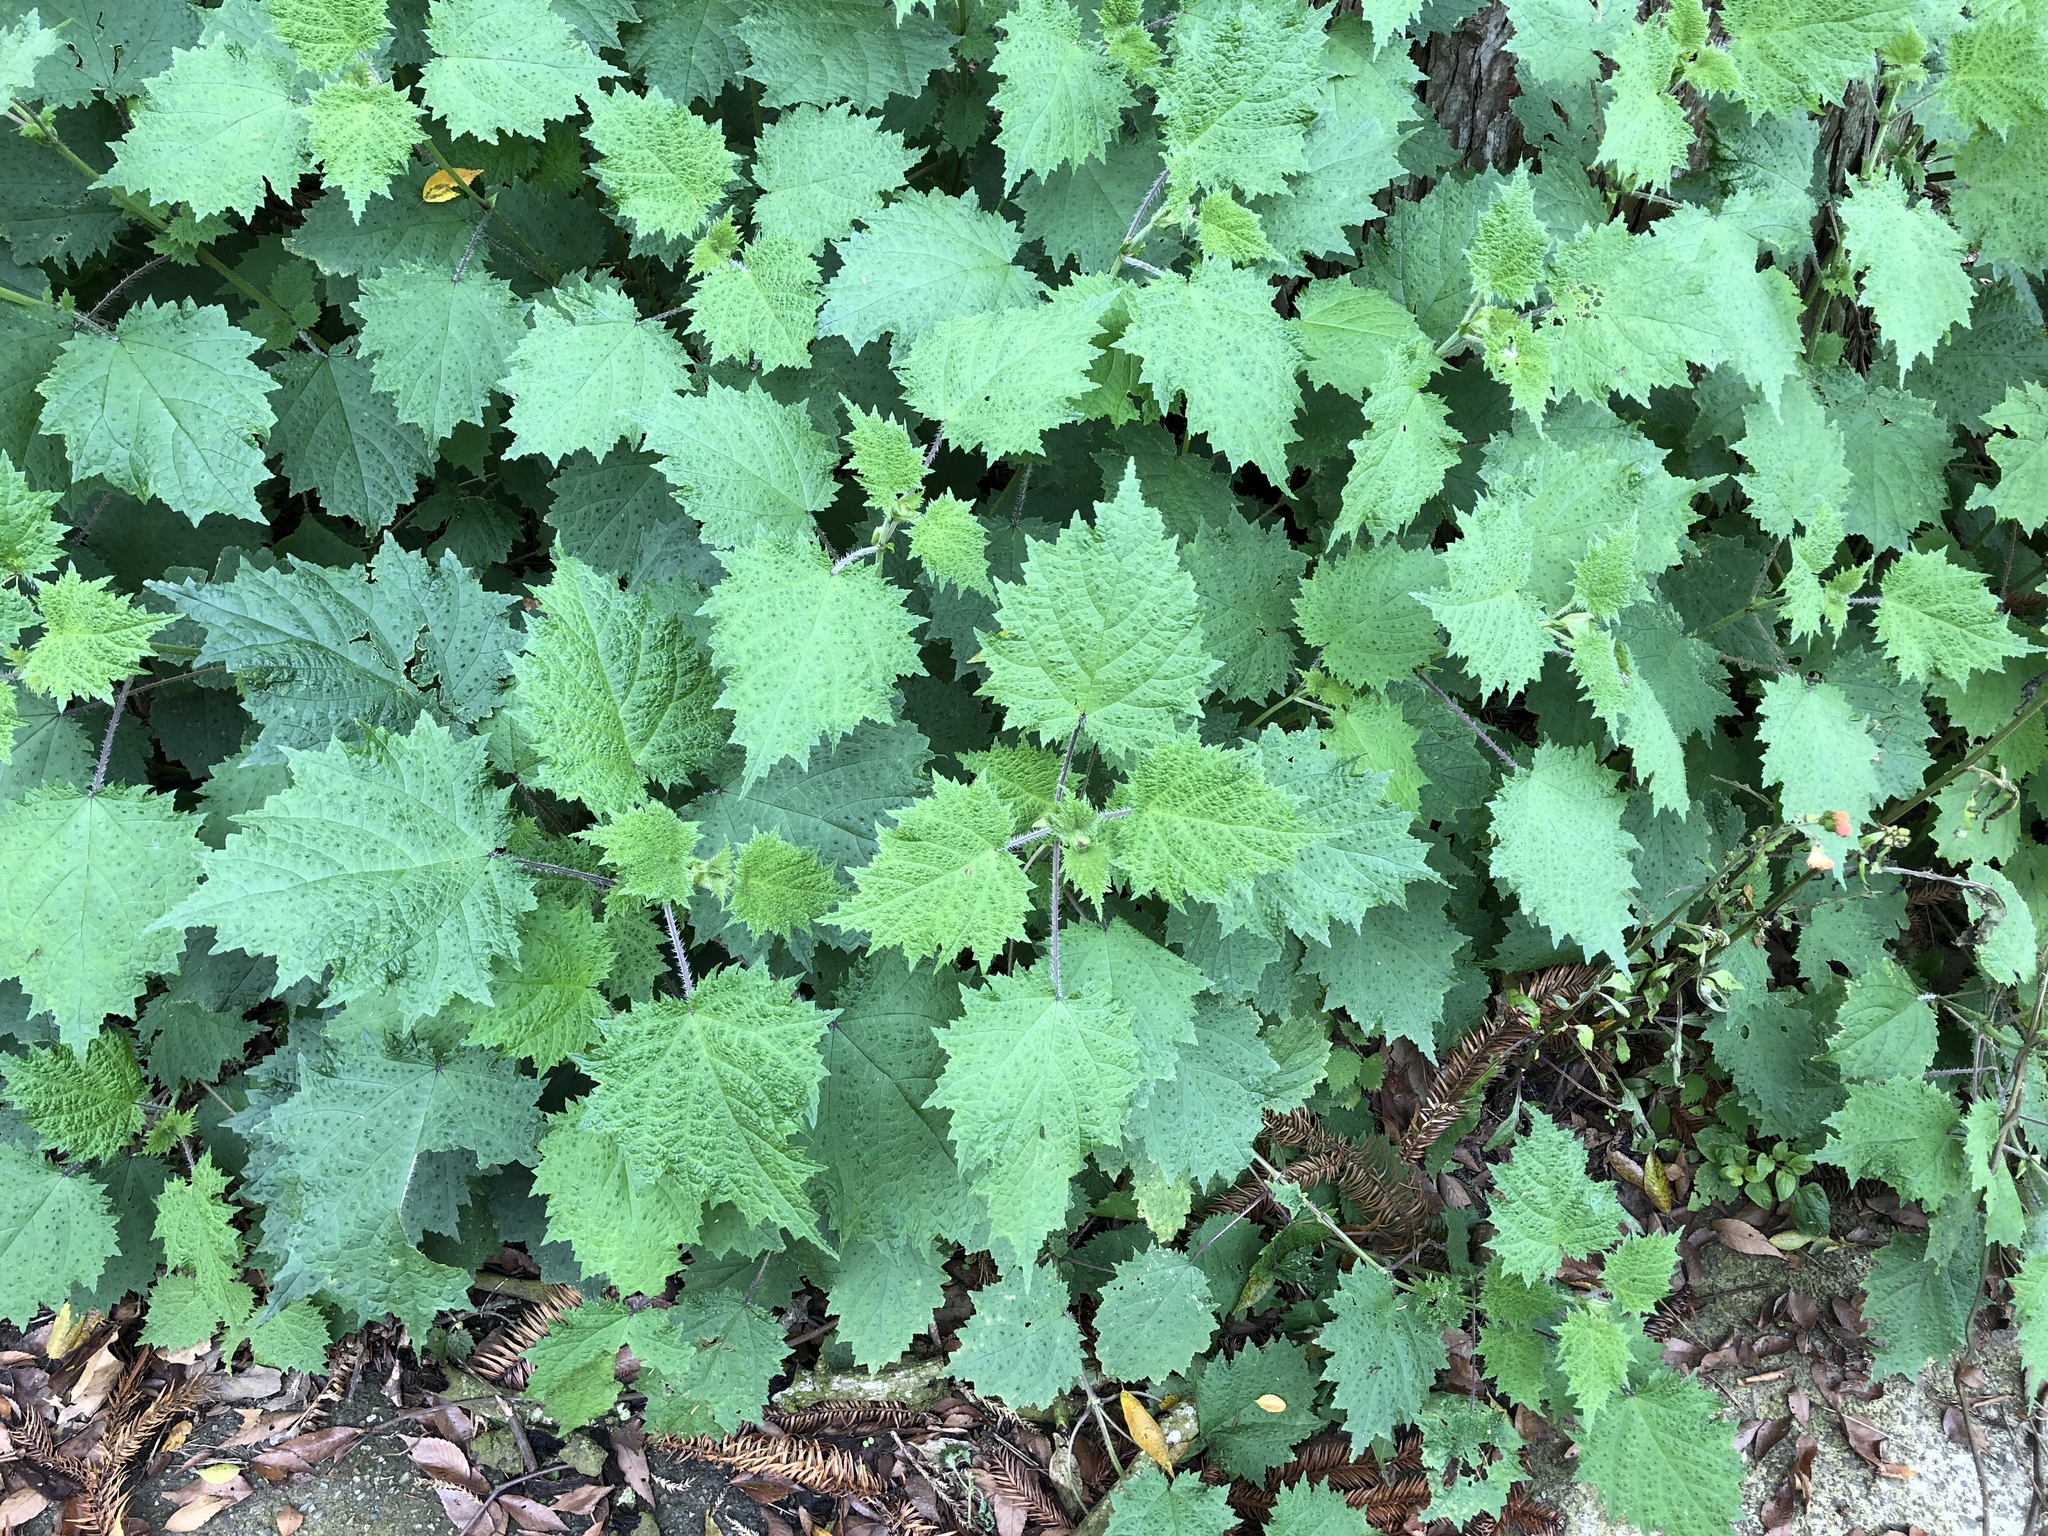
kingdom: Plantae
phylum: Tracheophyta
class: Magnoliopsida
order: Rosales
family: Urticaceae
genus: Urtica
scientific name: Urtica thunbergiana
